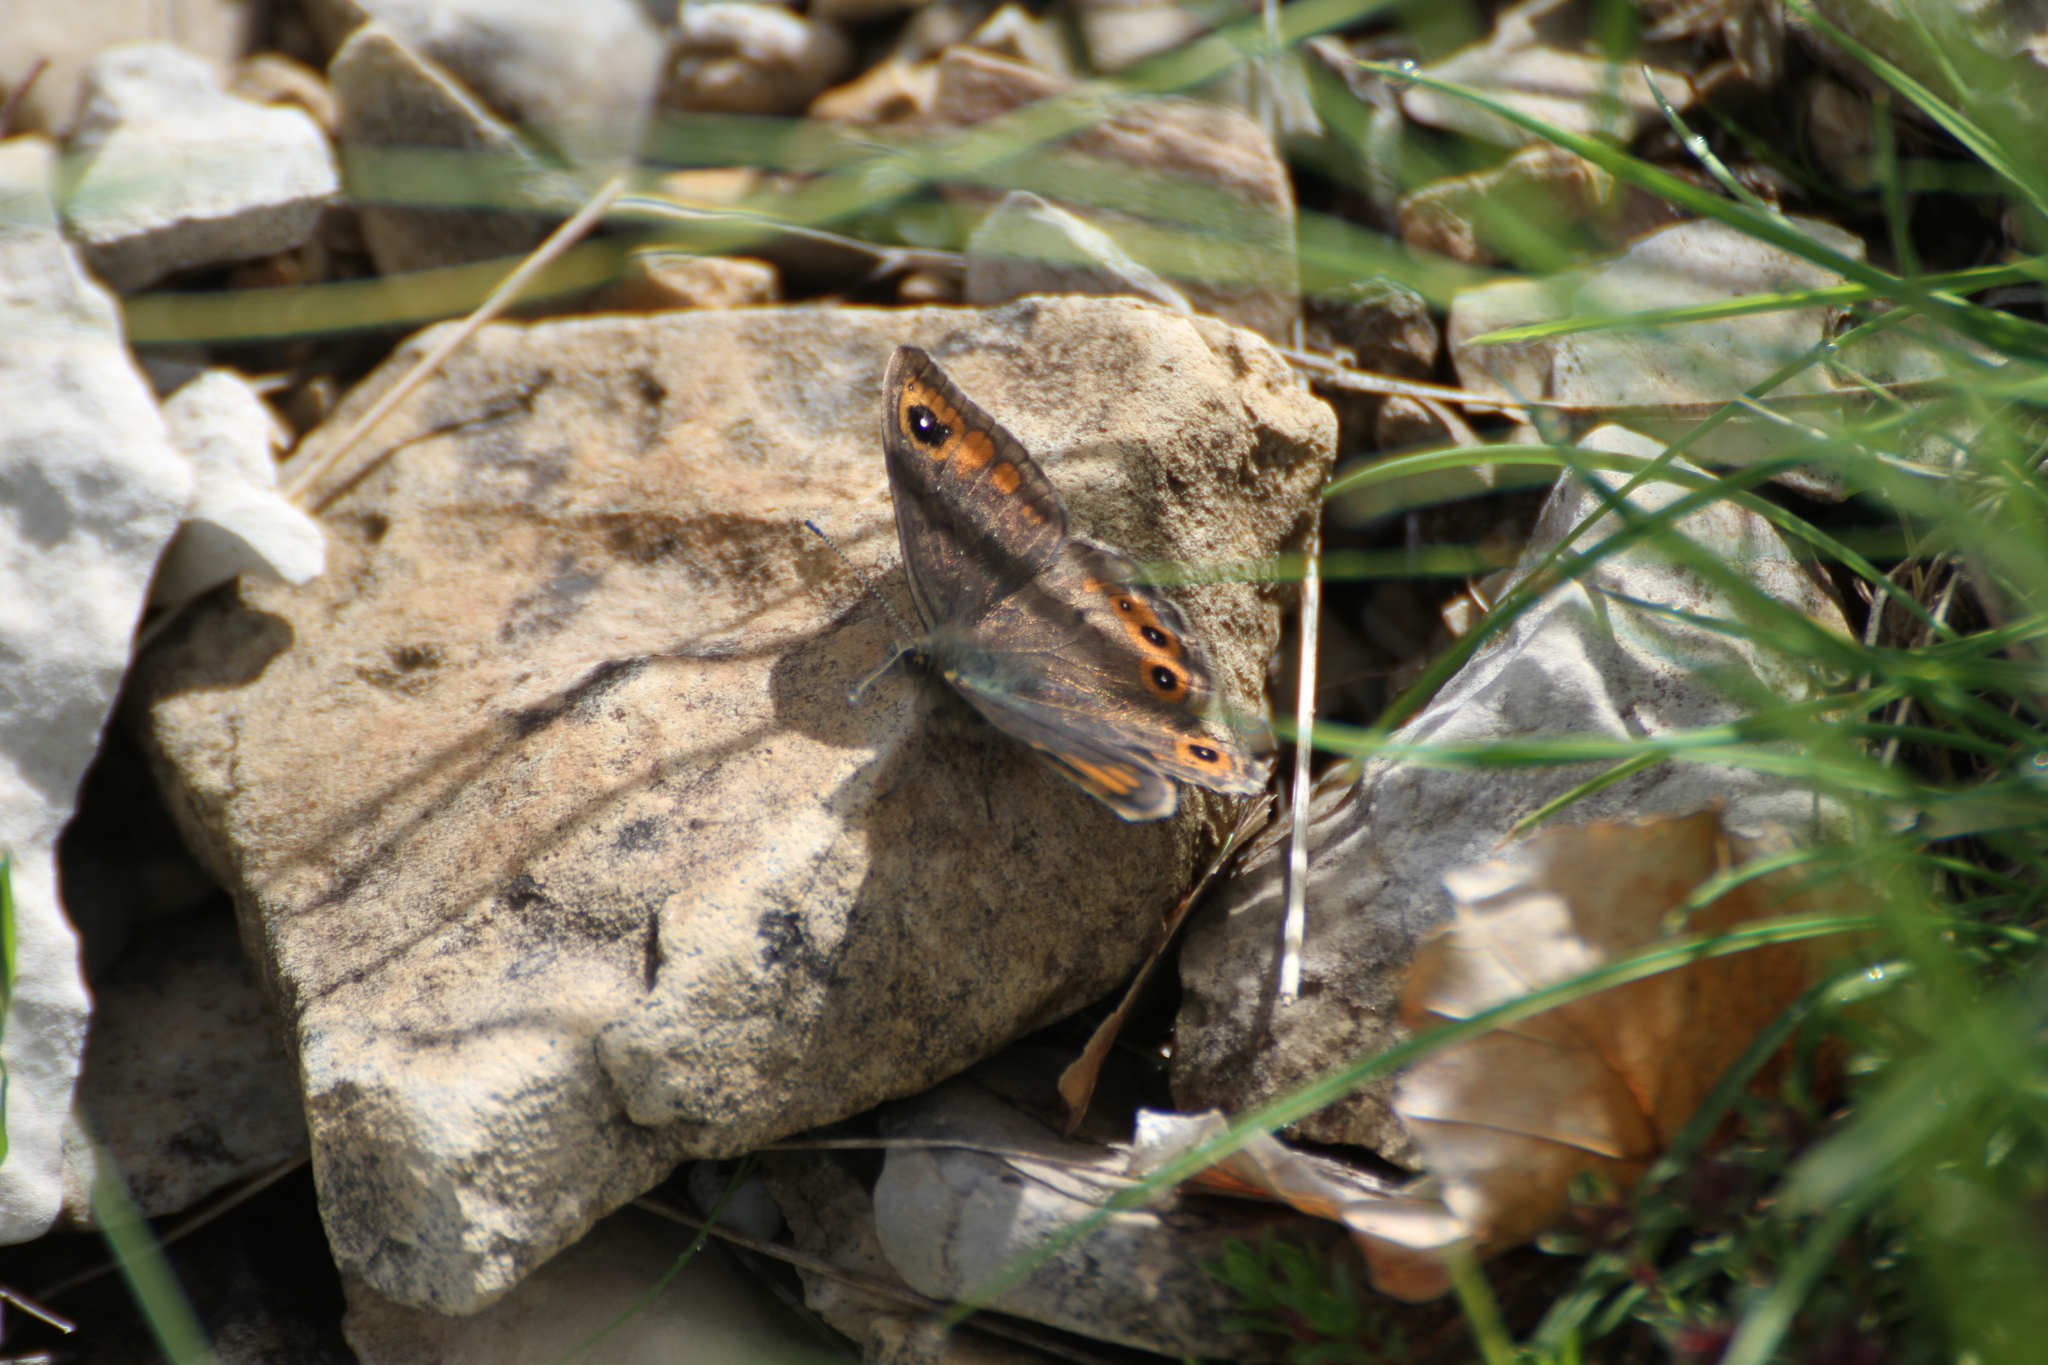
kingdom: Animalia
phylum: Arthropoda
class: Insecta
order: Lepidoptera
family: Nymphalidae
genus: Pararge
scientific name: Pararge Lasiommata maera
